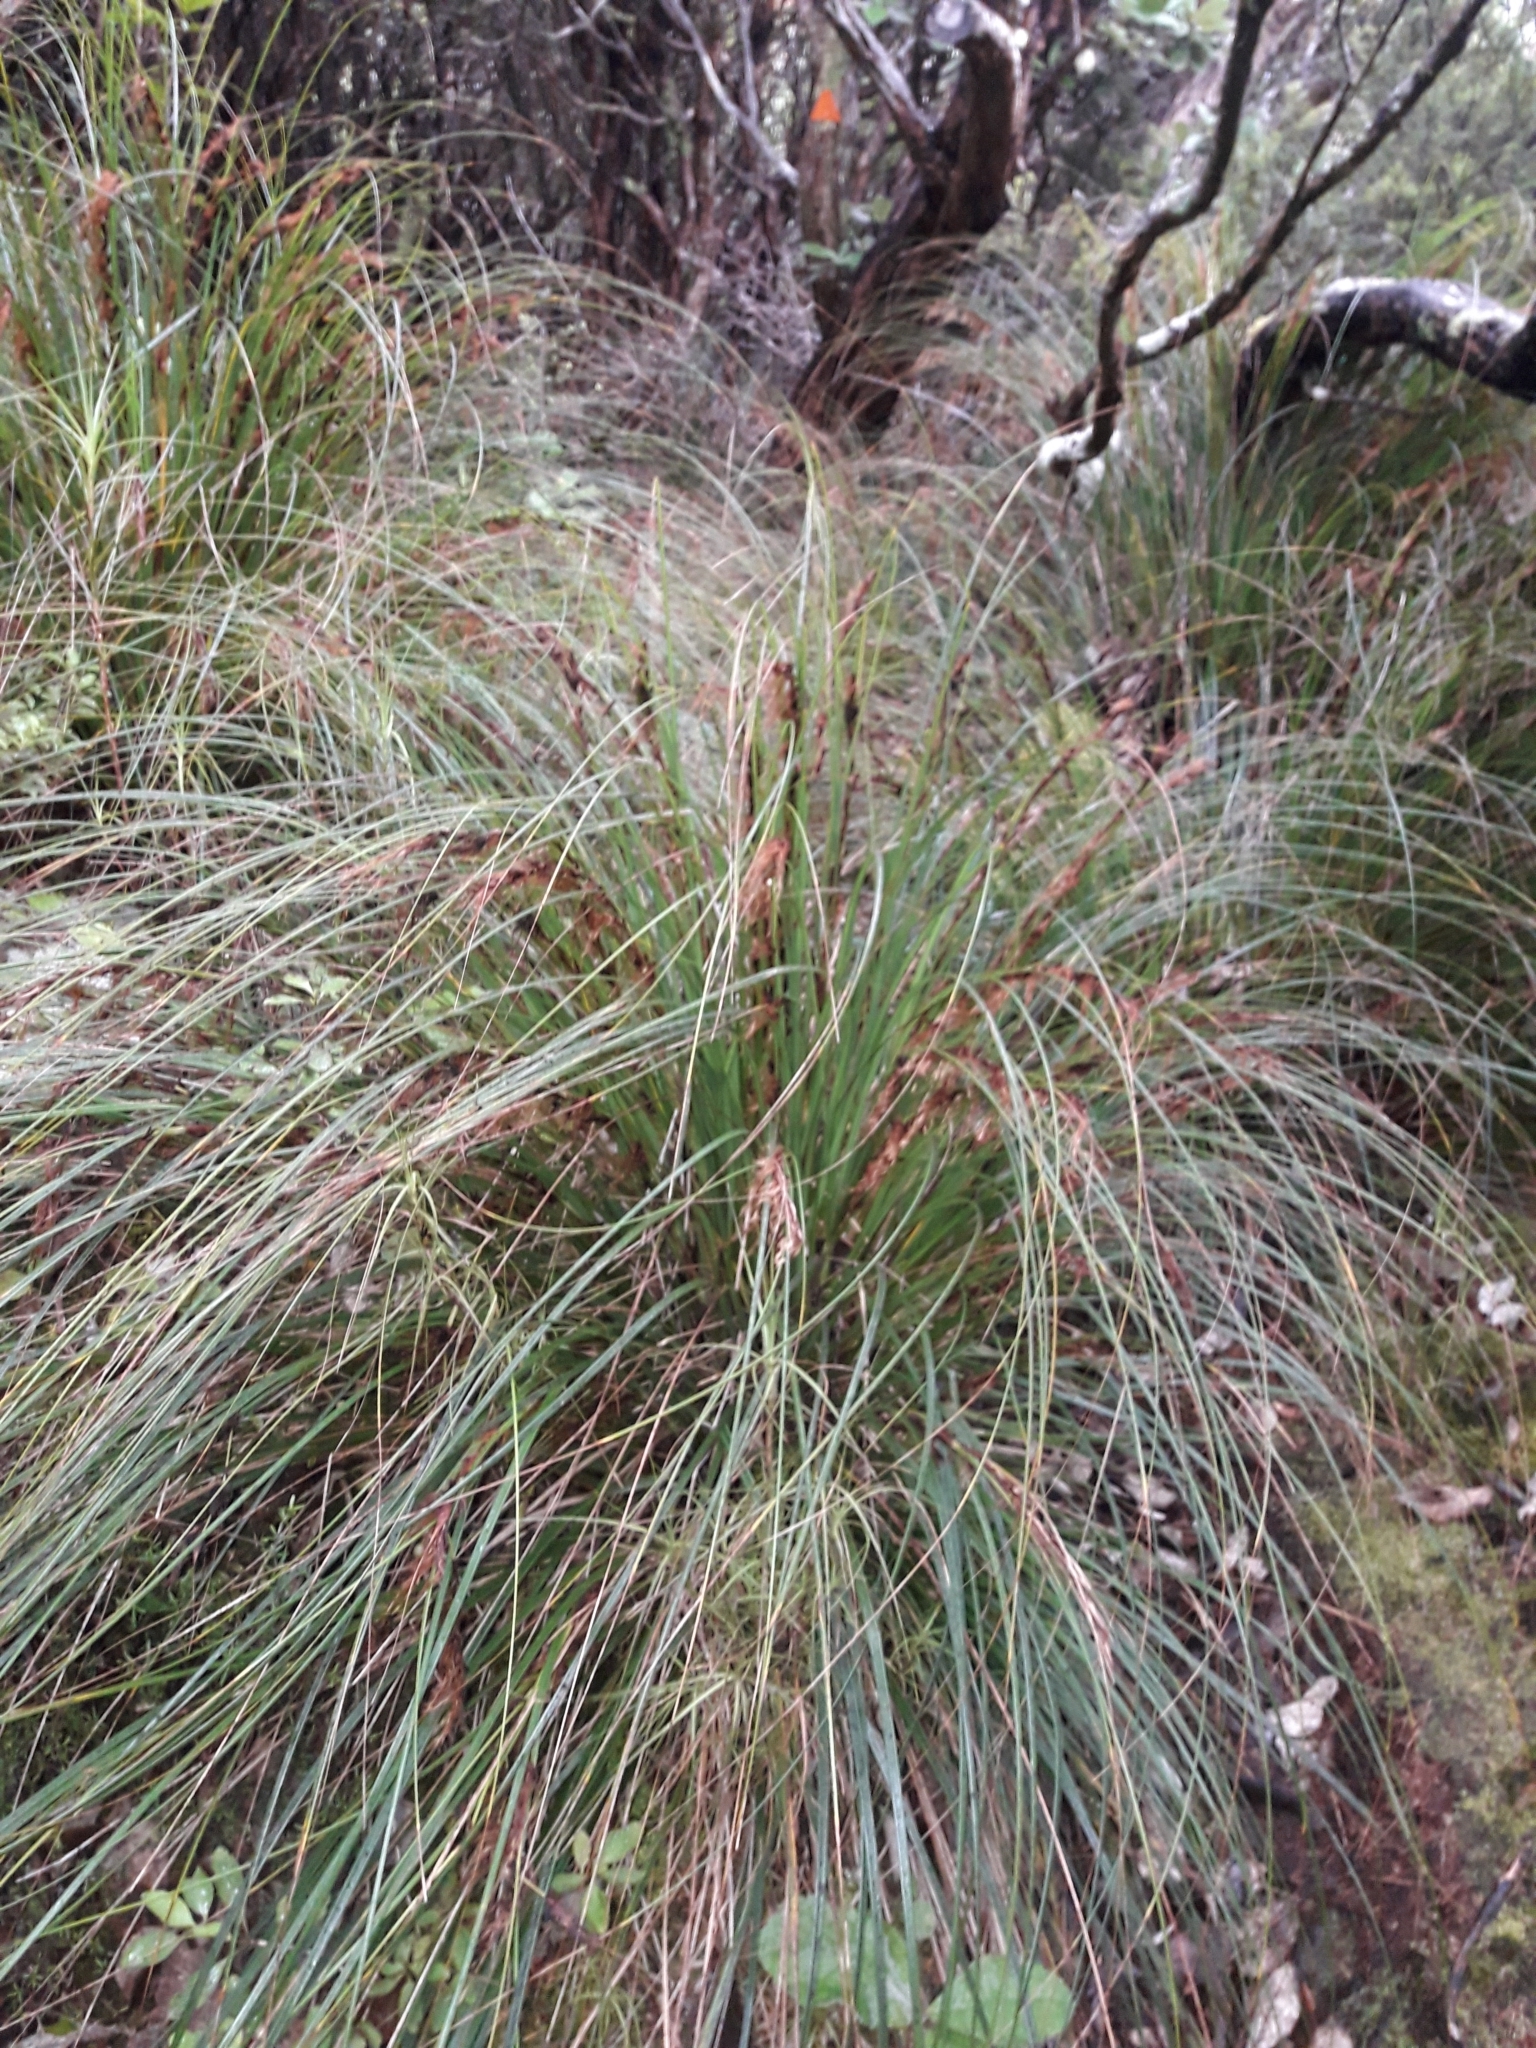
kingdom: Plantae
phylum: Tracheophyta
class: Liliopsida
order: Poales
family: Cyperaceae
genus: Gahnia
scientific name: Gahnia procera
